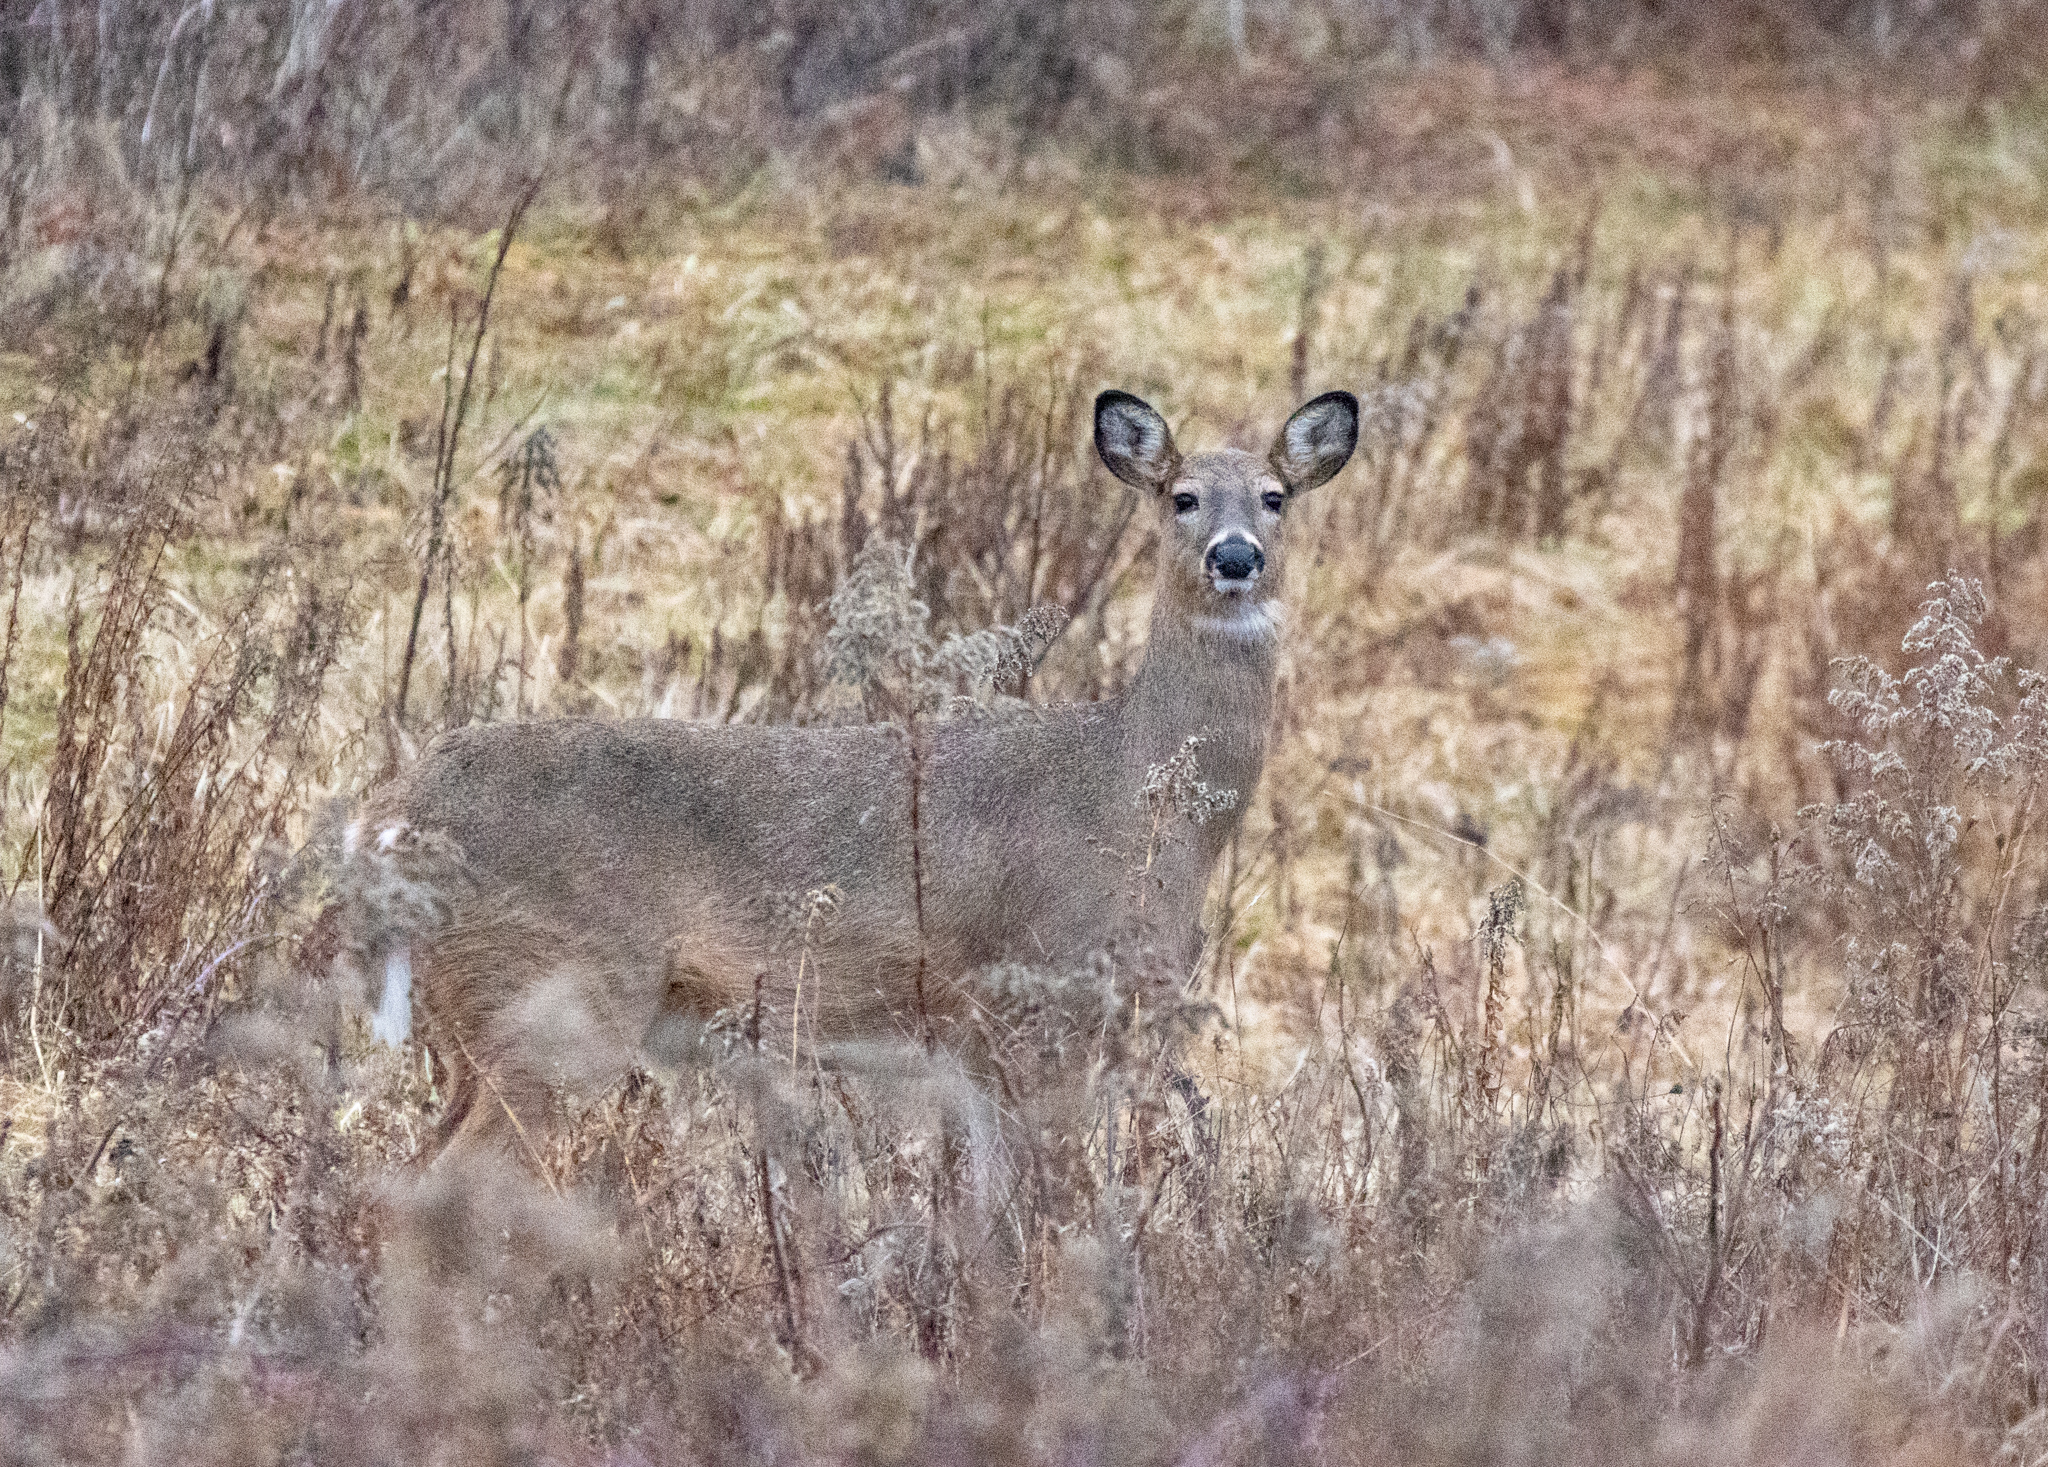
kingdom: Animalia
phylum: Chordata
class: Mammalia
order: Artiodactyla
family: Cervidae
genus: Odocoileus
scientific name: Odocoileus virginianus
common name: White-tailed deer
